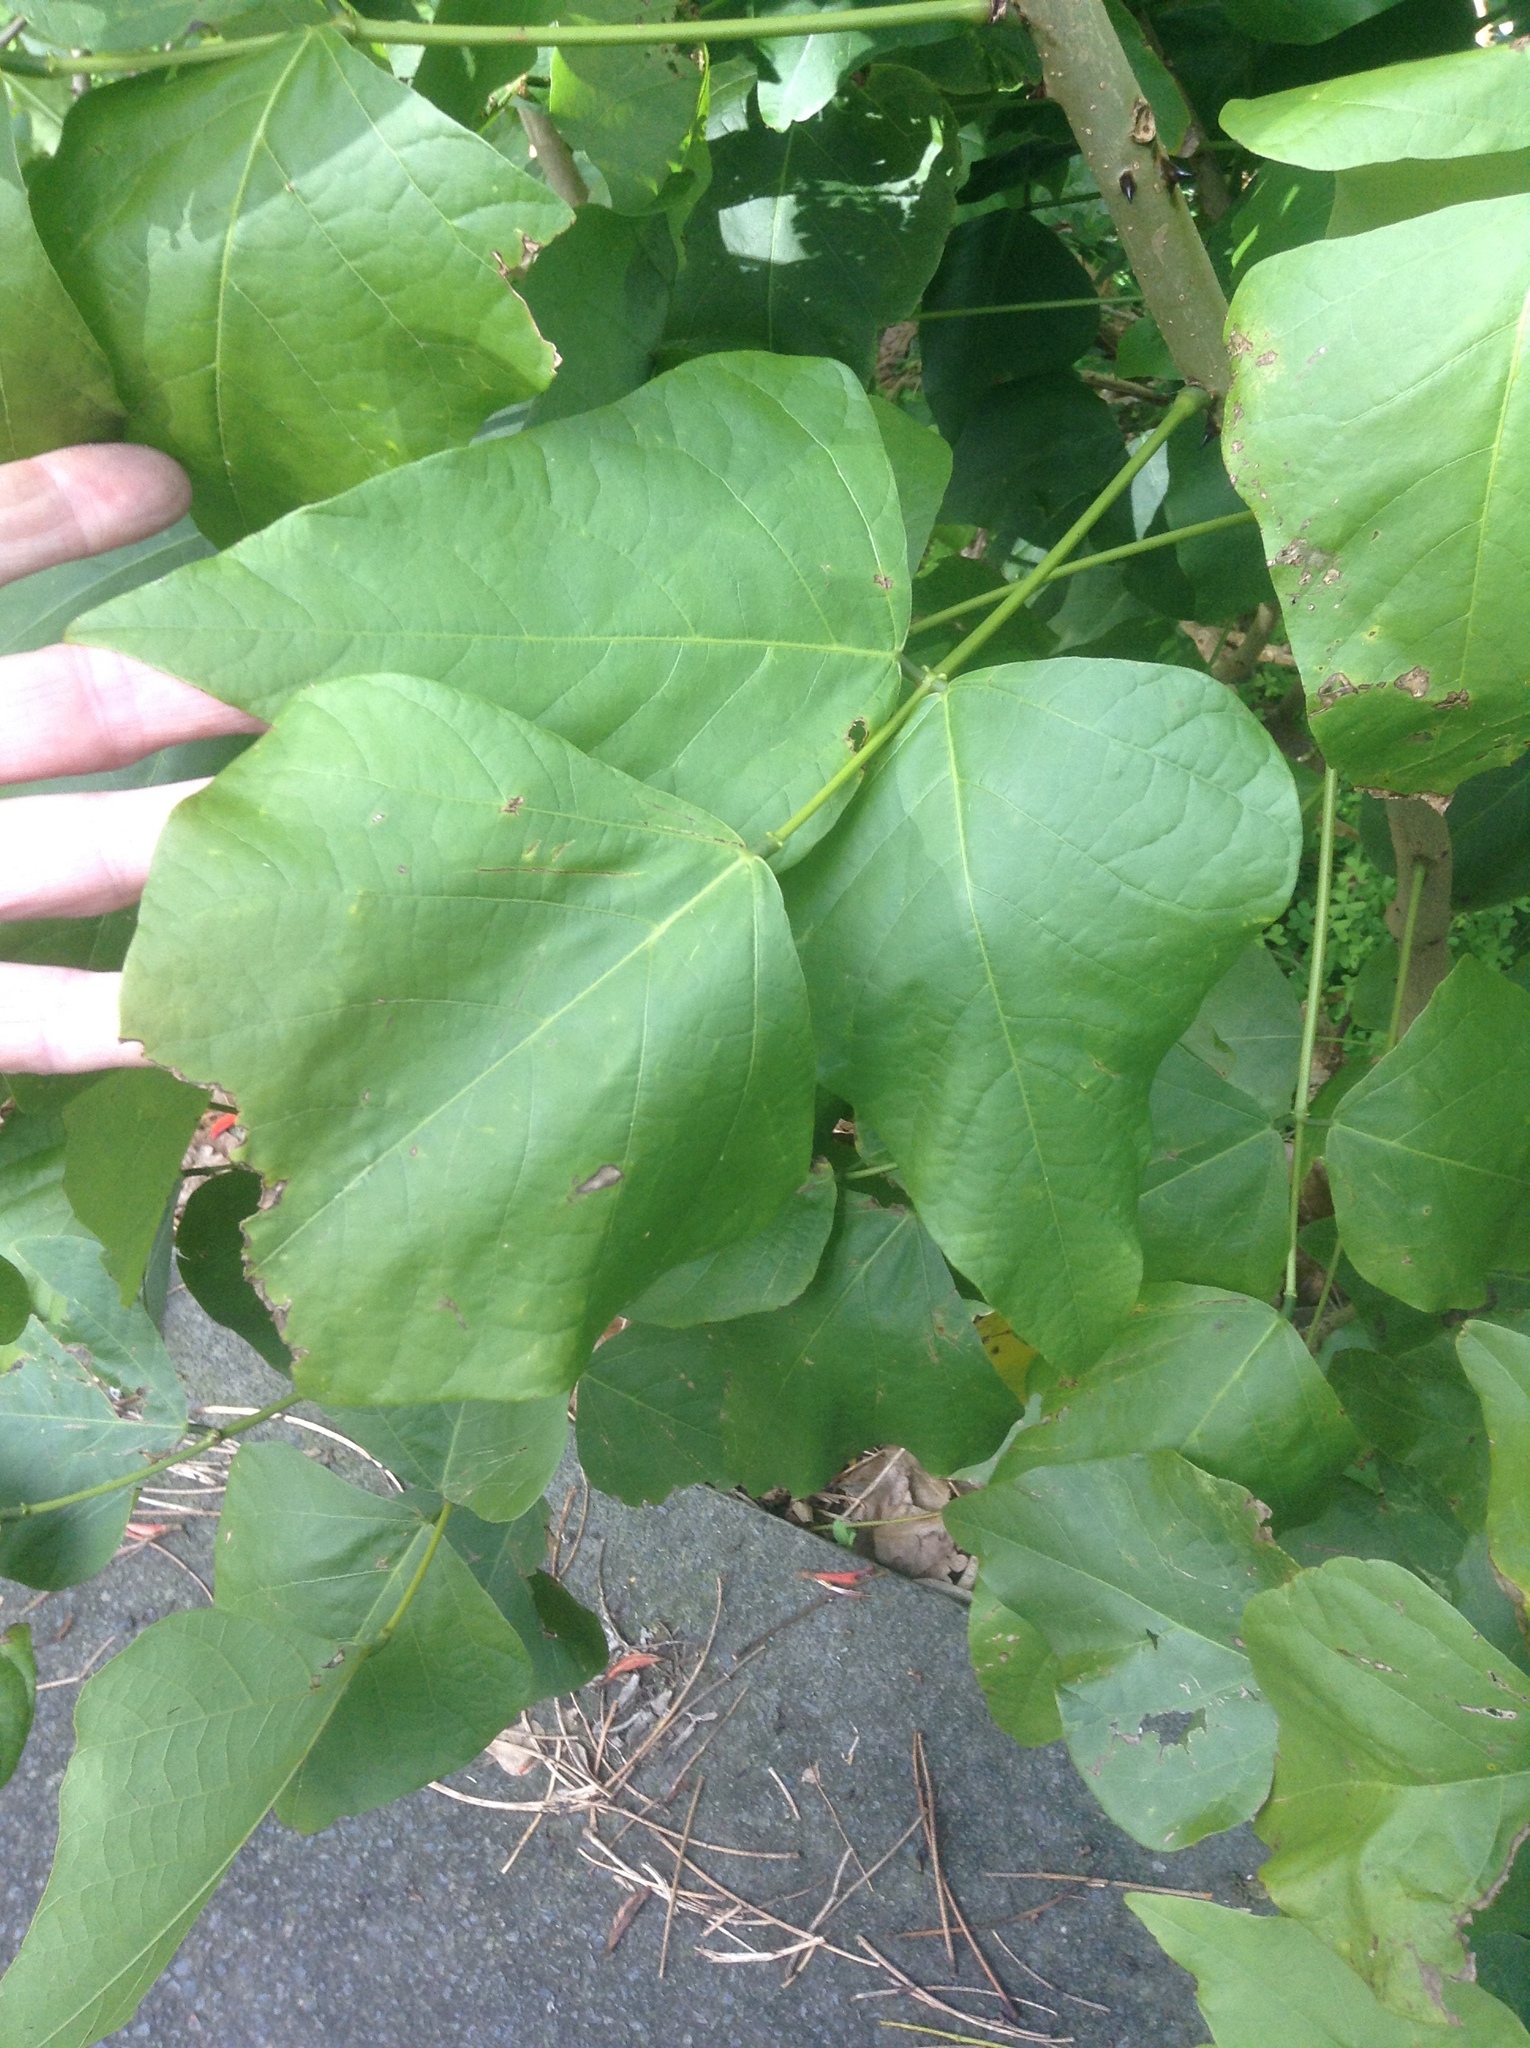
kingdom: Plantae
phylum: Tracheophyta
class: Magnoliopsida
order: Fabales
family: Fabaceae
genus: Erythrina
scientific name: Erythrina sykesii
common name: Coraltree
